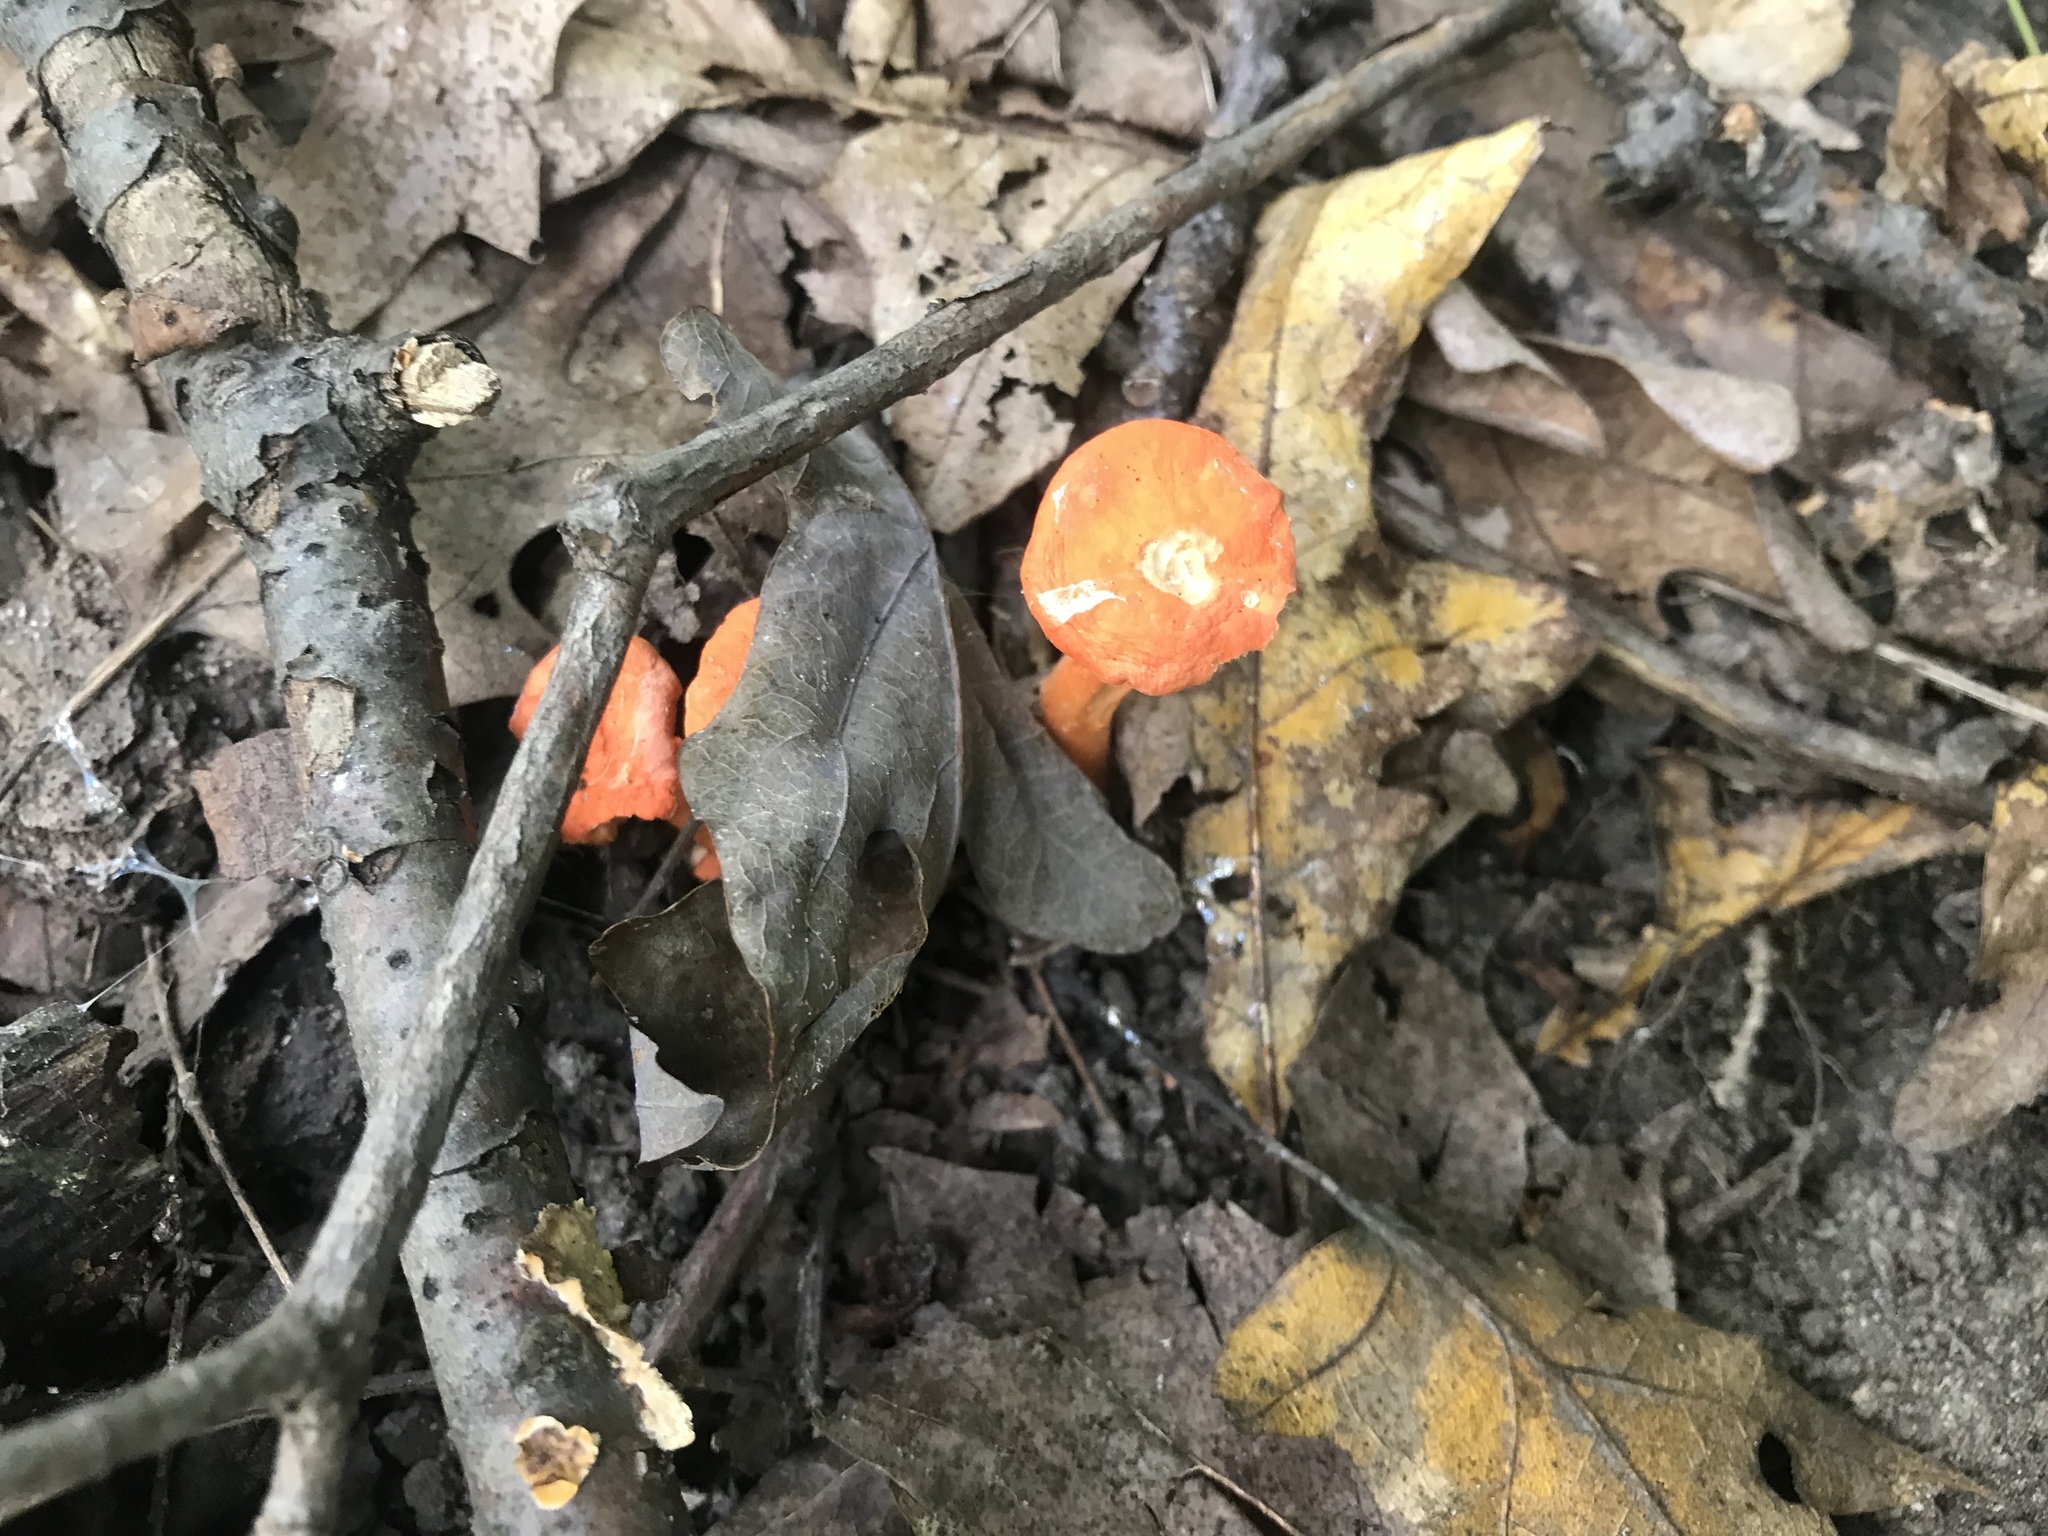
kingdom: Fungi
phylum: Basidiomycota
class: Agaricomycetes
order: Cantharellales
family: Hydnaceae
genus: Cantharellus
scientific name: Cantharellus cinnabarinus
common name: Cinnabar chanterelle
